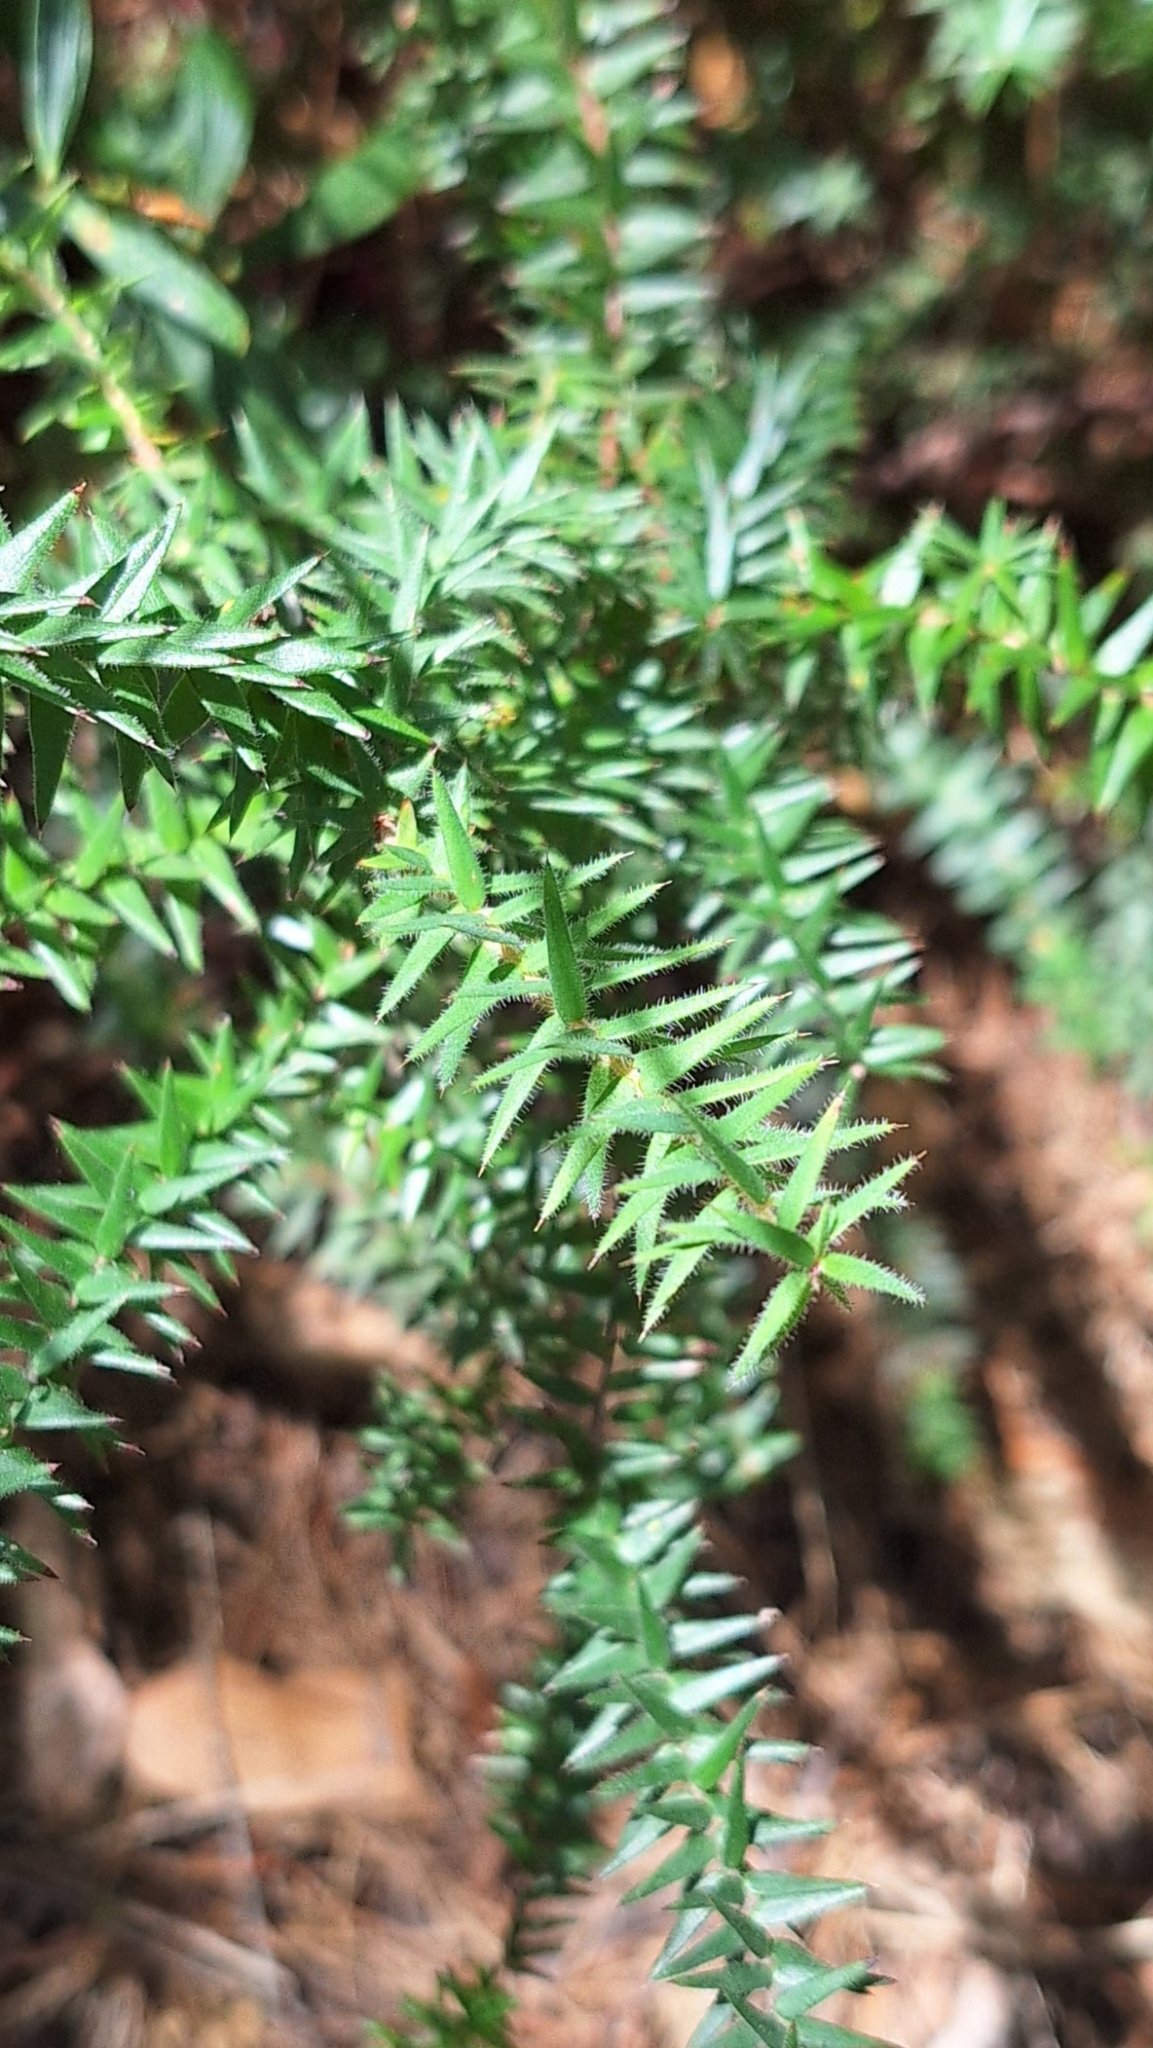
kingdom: Plantae
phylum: Tracheophyta
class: Magnoliopsida
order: Ericales
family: Ericaceae
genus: Acrotriche
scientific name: Acrotriche fasciculiflora
